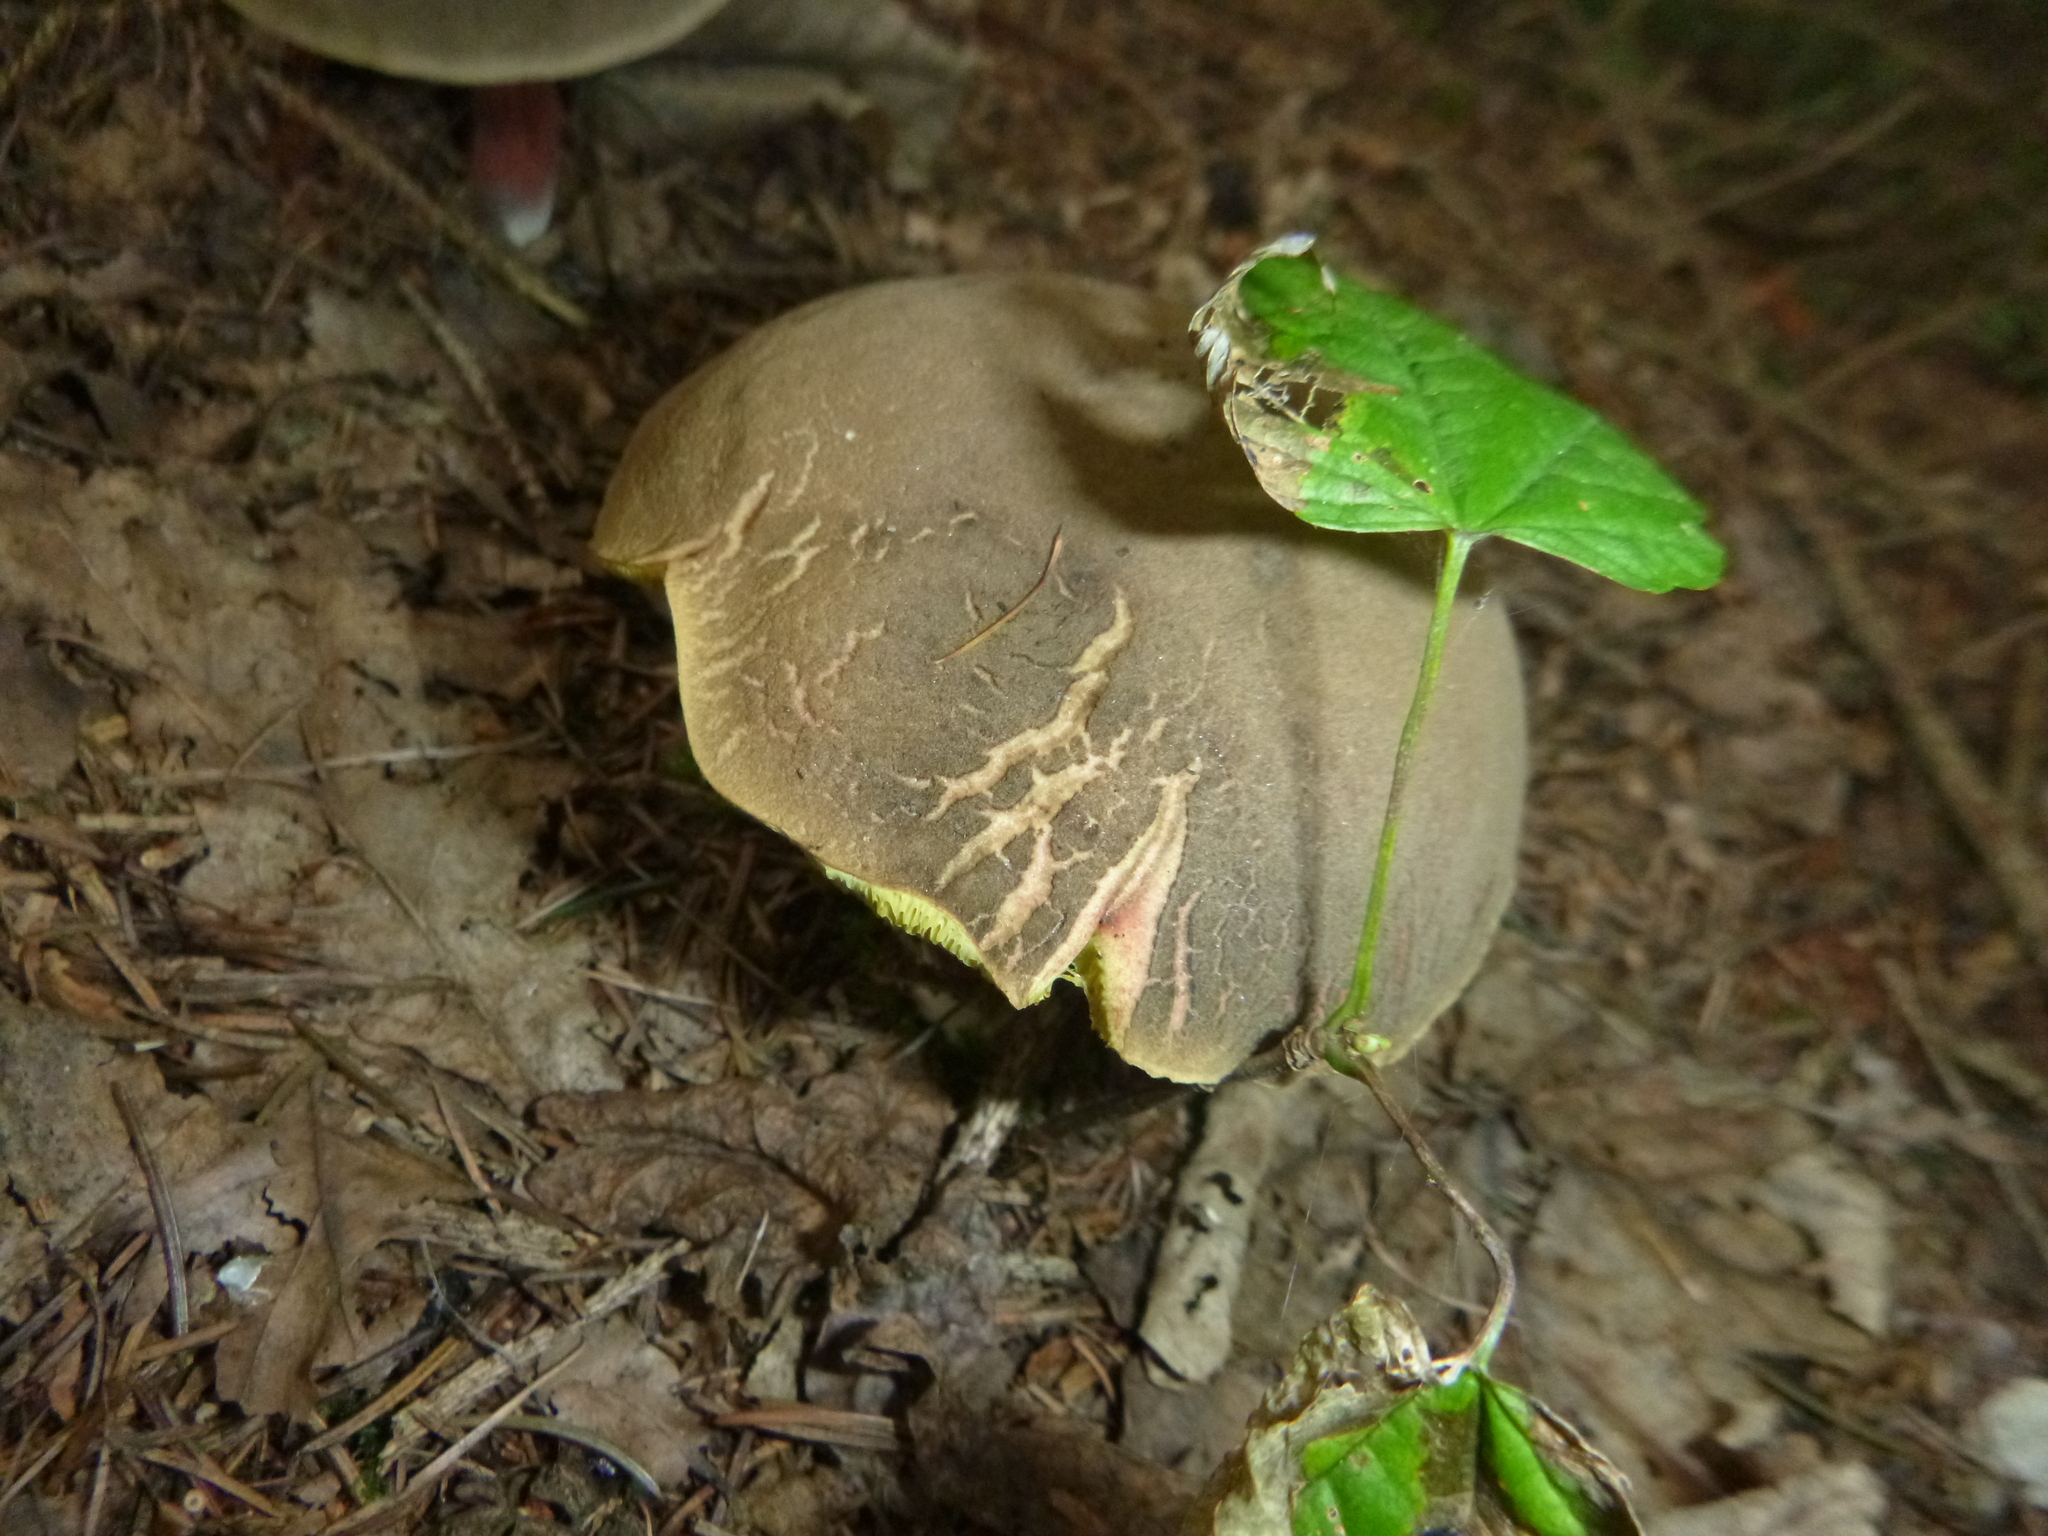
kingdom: Fungi
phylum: Basidiomycota
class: Agaricomycetes
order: Boletales
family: Boletaceae
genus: Xerocomellus
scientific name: Xerocomellus chrysenteron
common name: Red-cracking bolete
